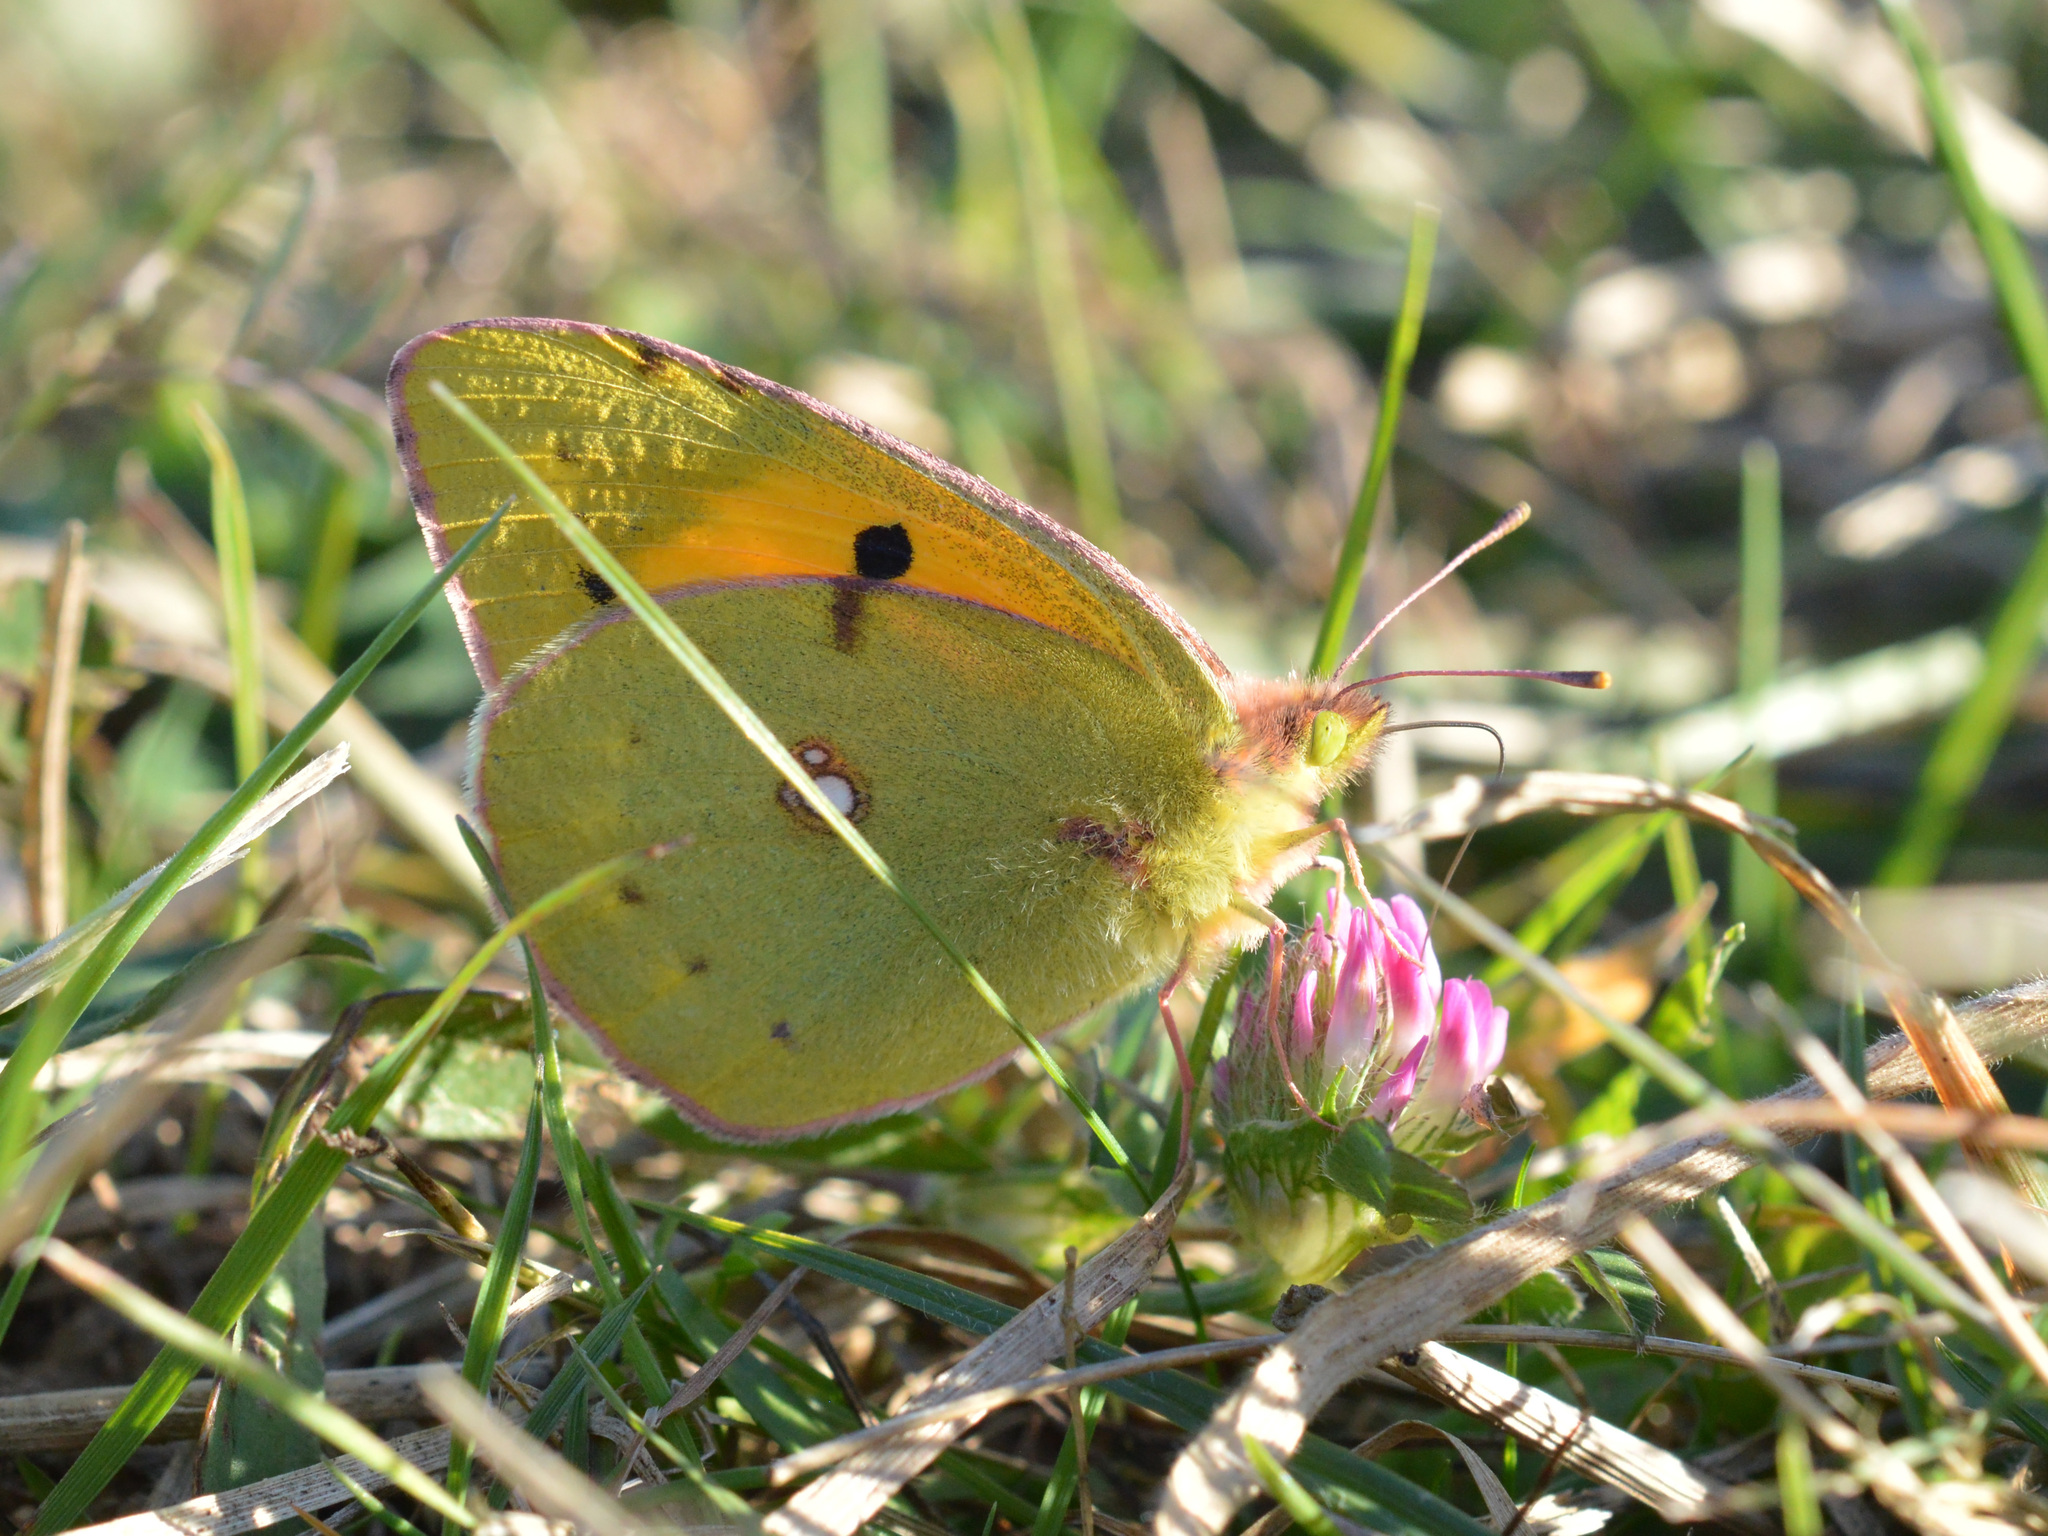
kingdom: Animalia
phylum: Arthropoda
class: Insecta
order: Lepidoptera
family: Pieridae
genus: Colias
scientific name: Colias croceus
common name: Clouded yellow
